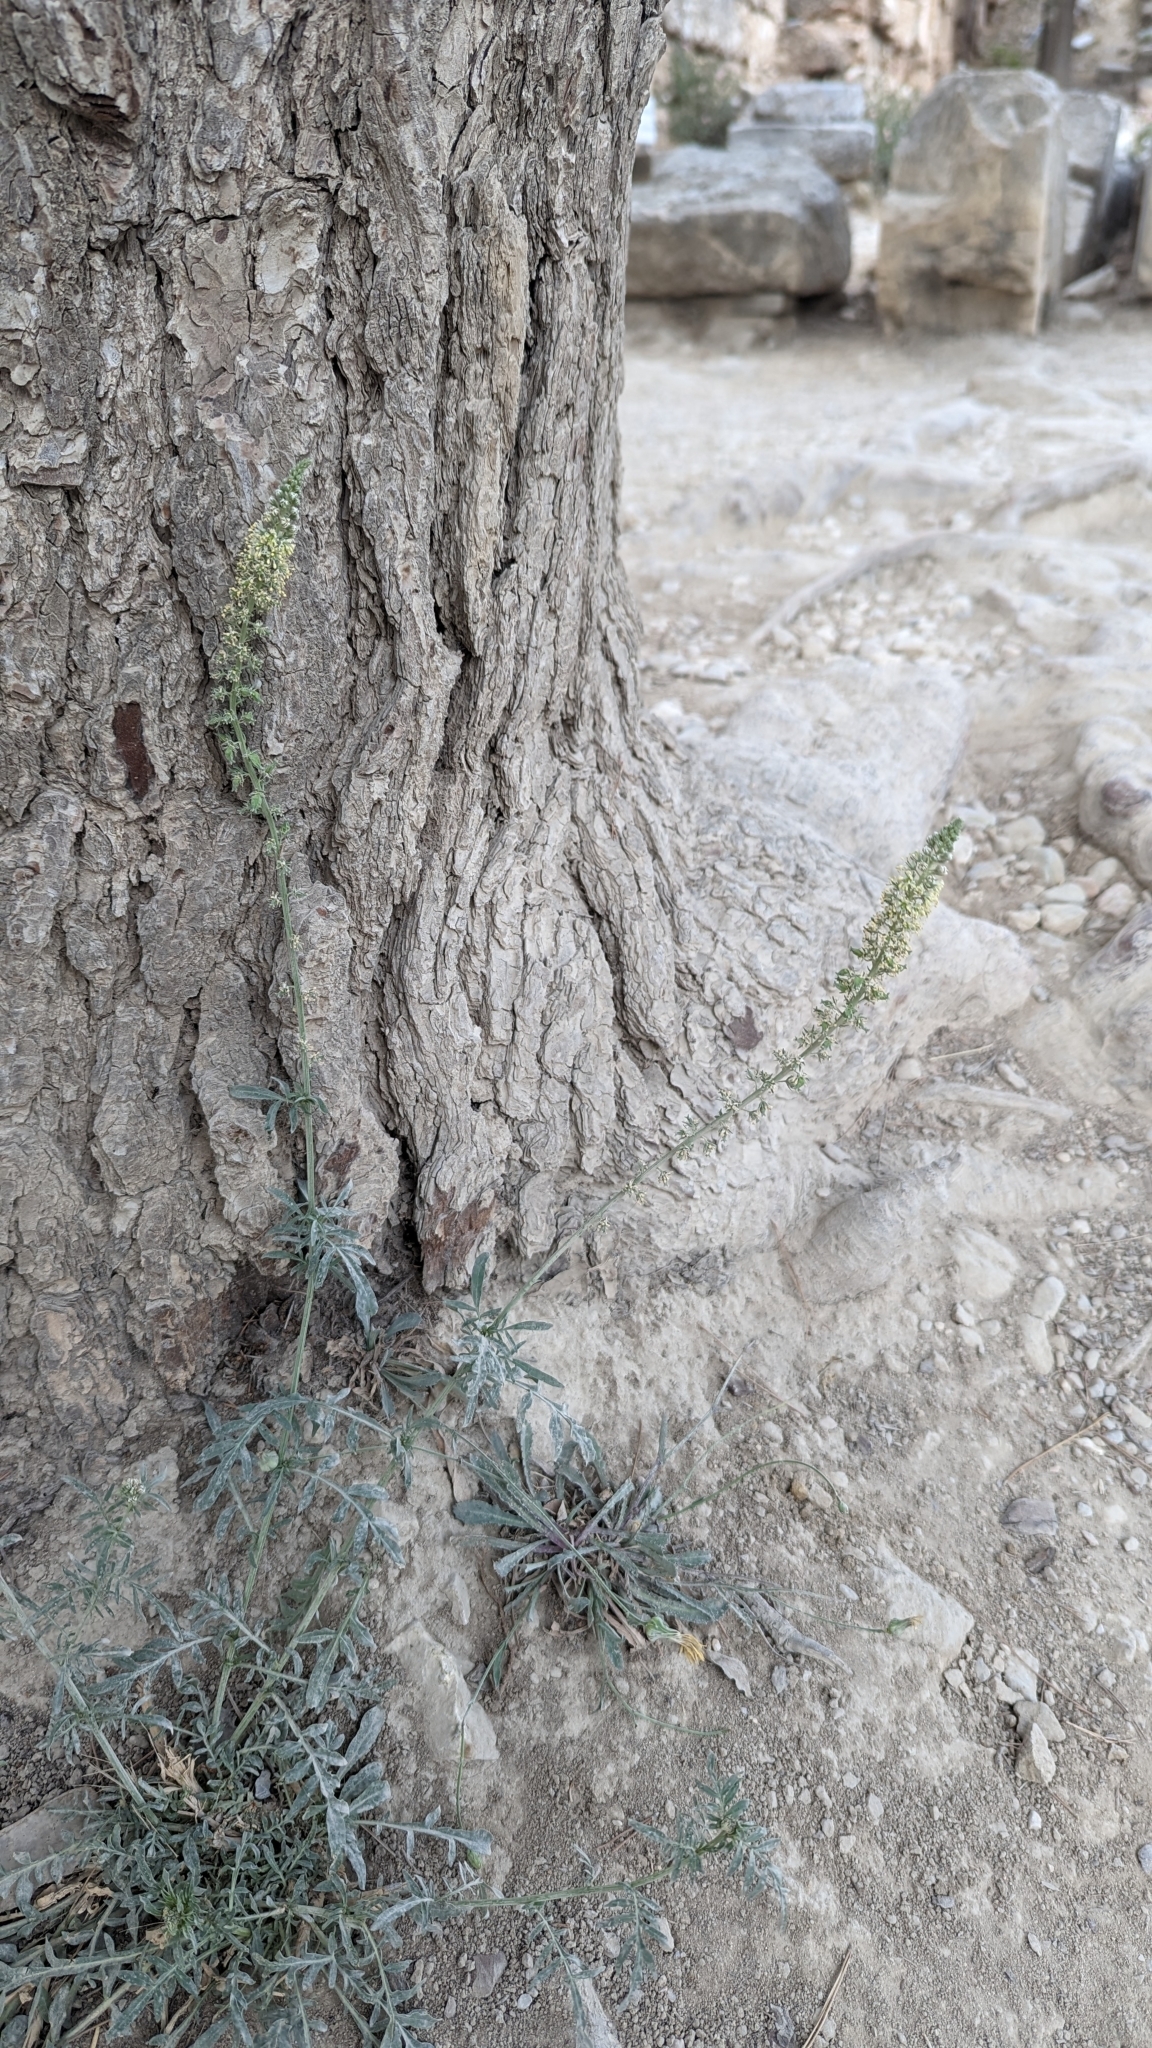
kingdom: Plantae
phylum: Tracheophyta
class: Magnoliopsida
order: Brassicales
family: Resedaceae
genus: Reseda
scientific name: Reseda alba
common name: White mignonette
